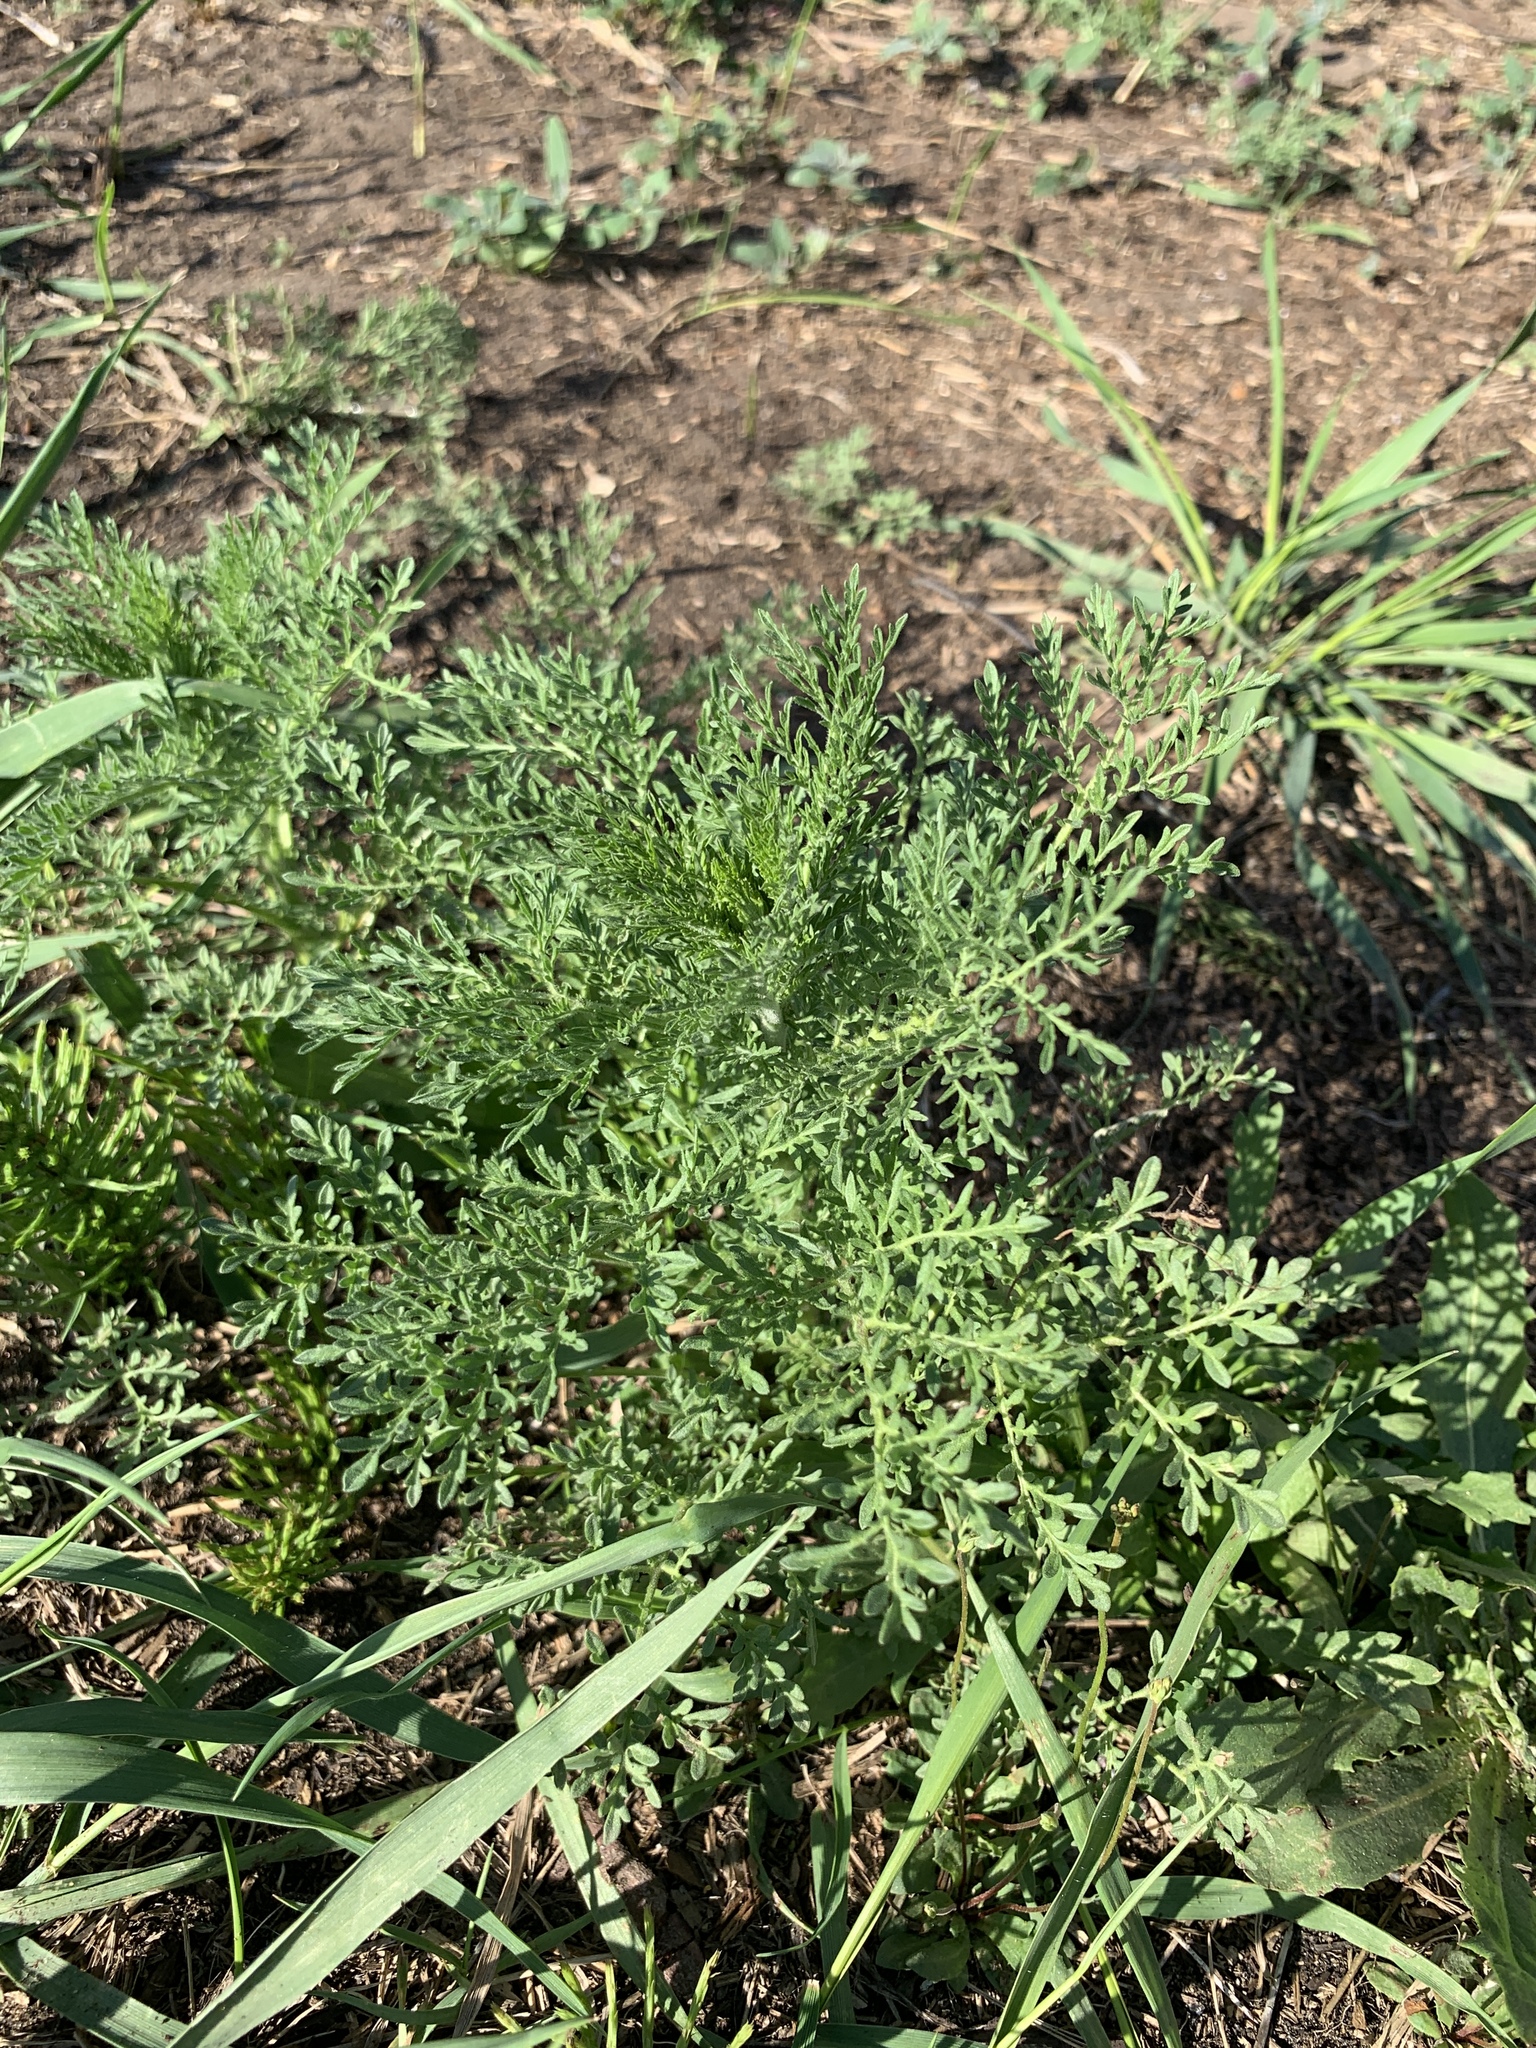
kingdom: Plantae
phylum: Tracheophyta
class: Magnoliopsida
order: Brassicales
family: Brassicaceae
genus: Descurainia
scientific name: Descurainia sophia
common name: Flixweed
